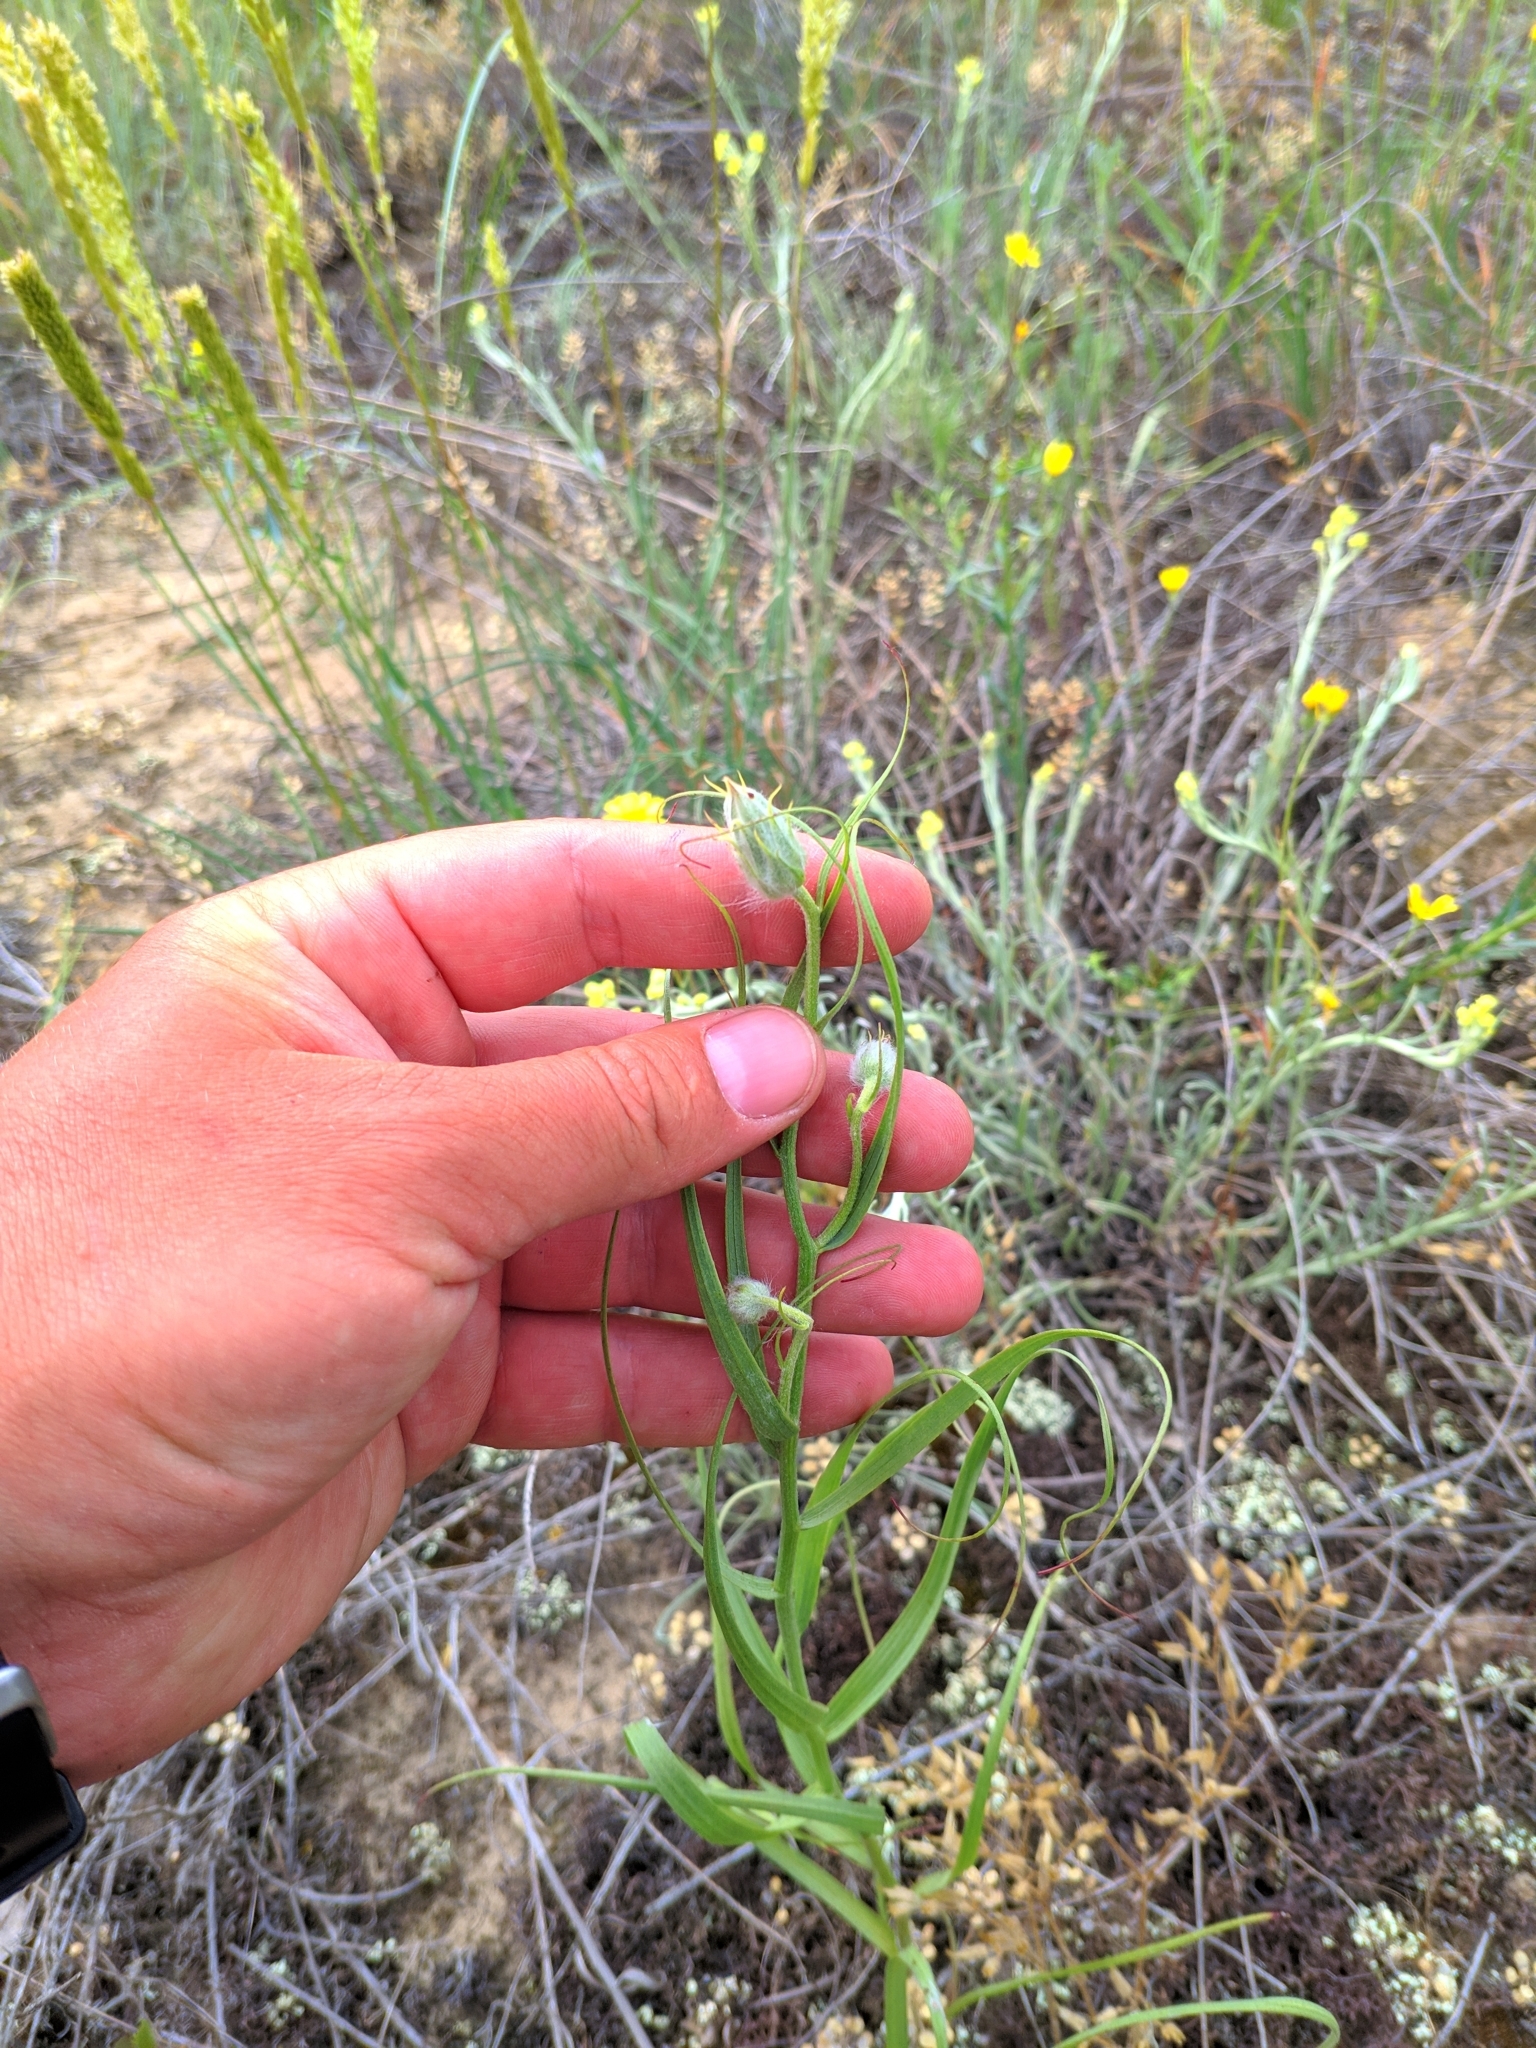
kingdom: Plantae
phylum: Tracheophyta
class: Magnoliopsida
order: Asterales
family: Asteraceae
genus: Gelasia
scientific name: Gelasia ensifolia
